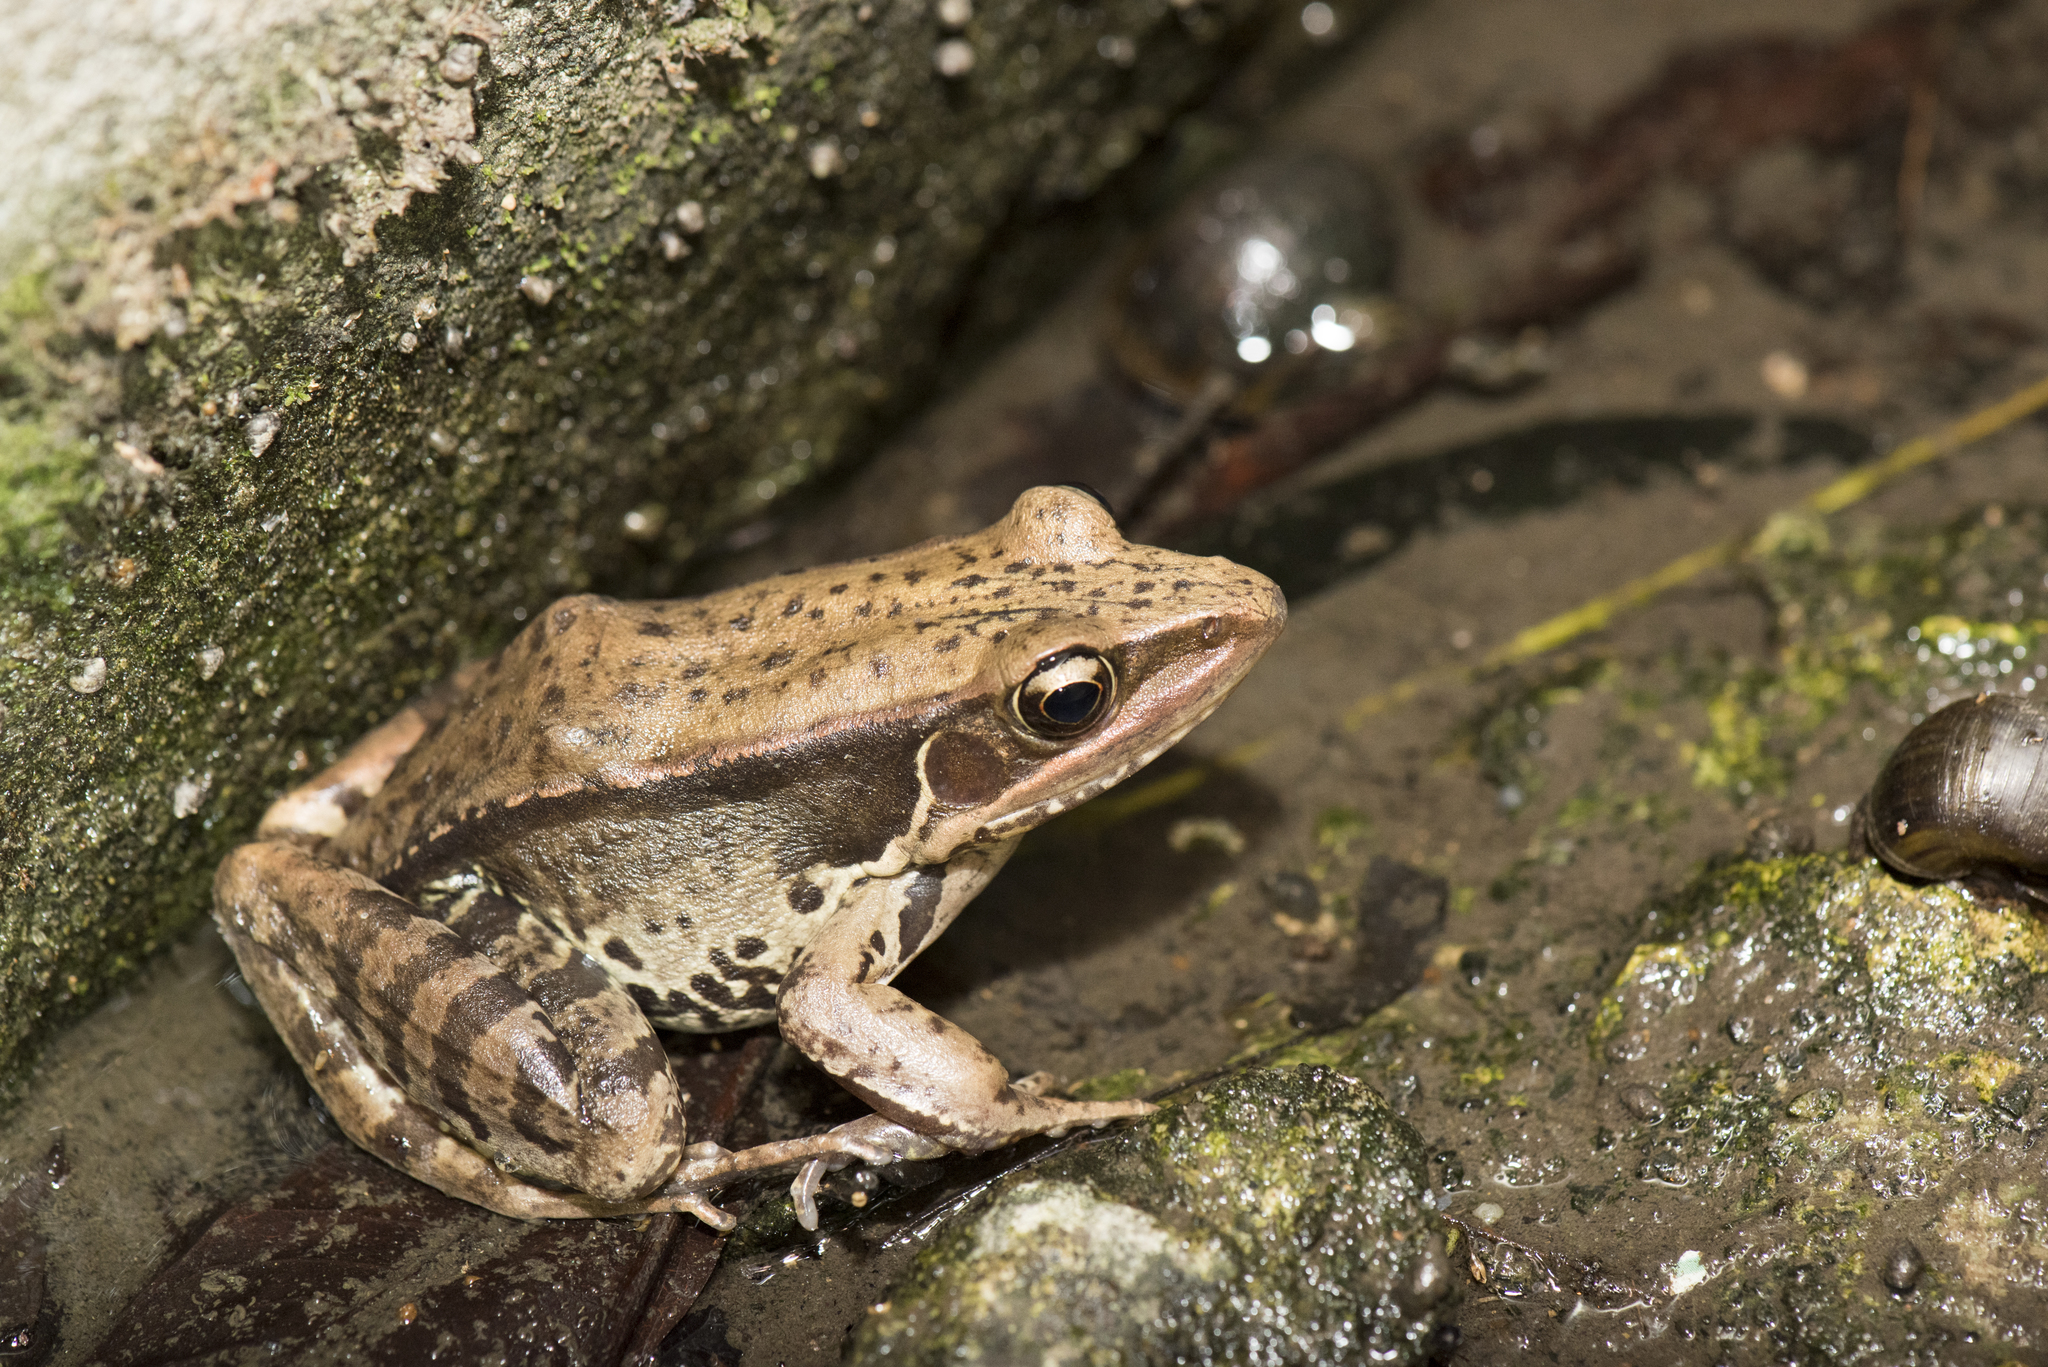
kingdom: Animalia
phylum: Chordata
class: Amphibia
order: Anura
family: Ranidae
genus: Sylvirana
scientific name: Sylvirana guentheri
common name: Guenther's amoy frog
